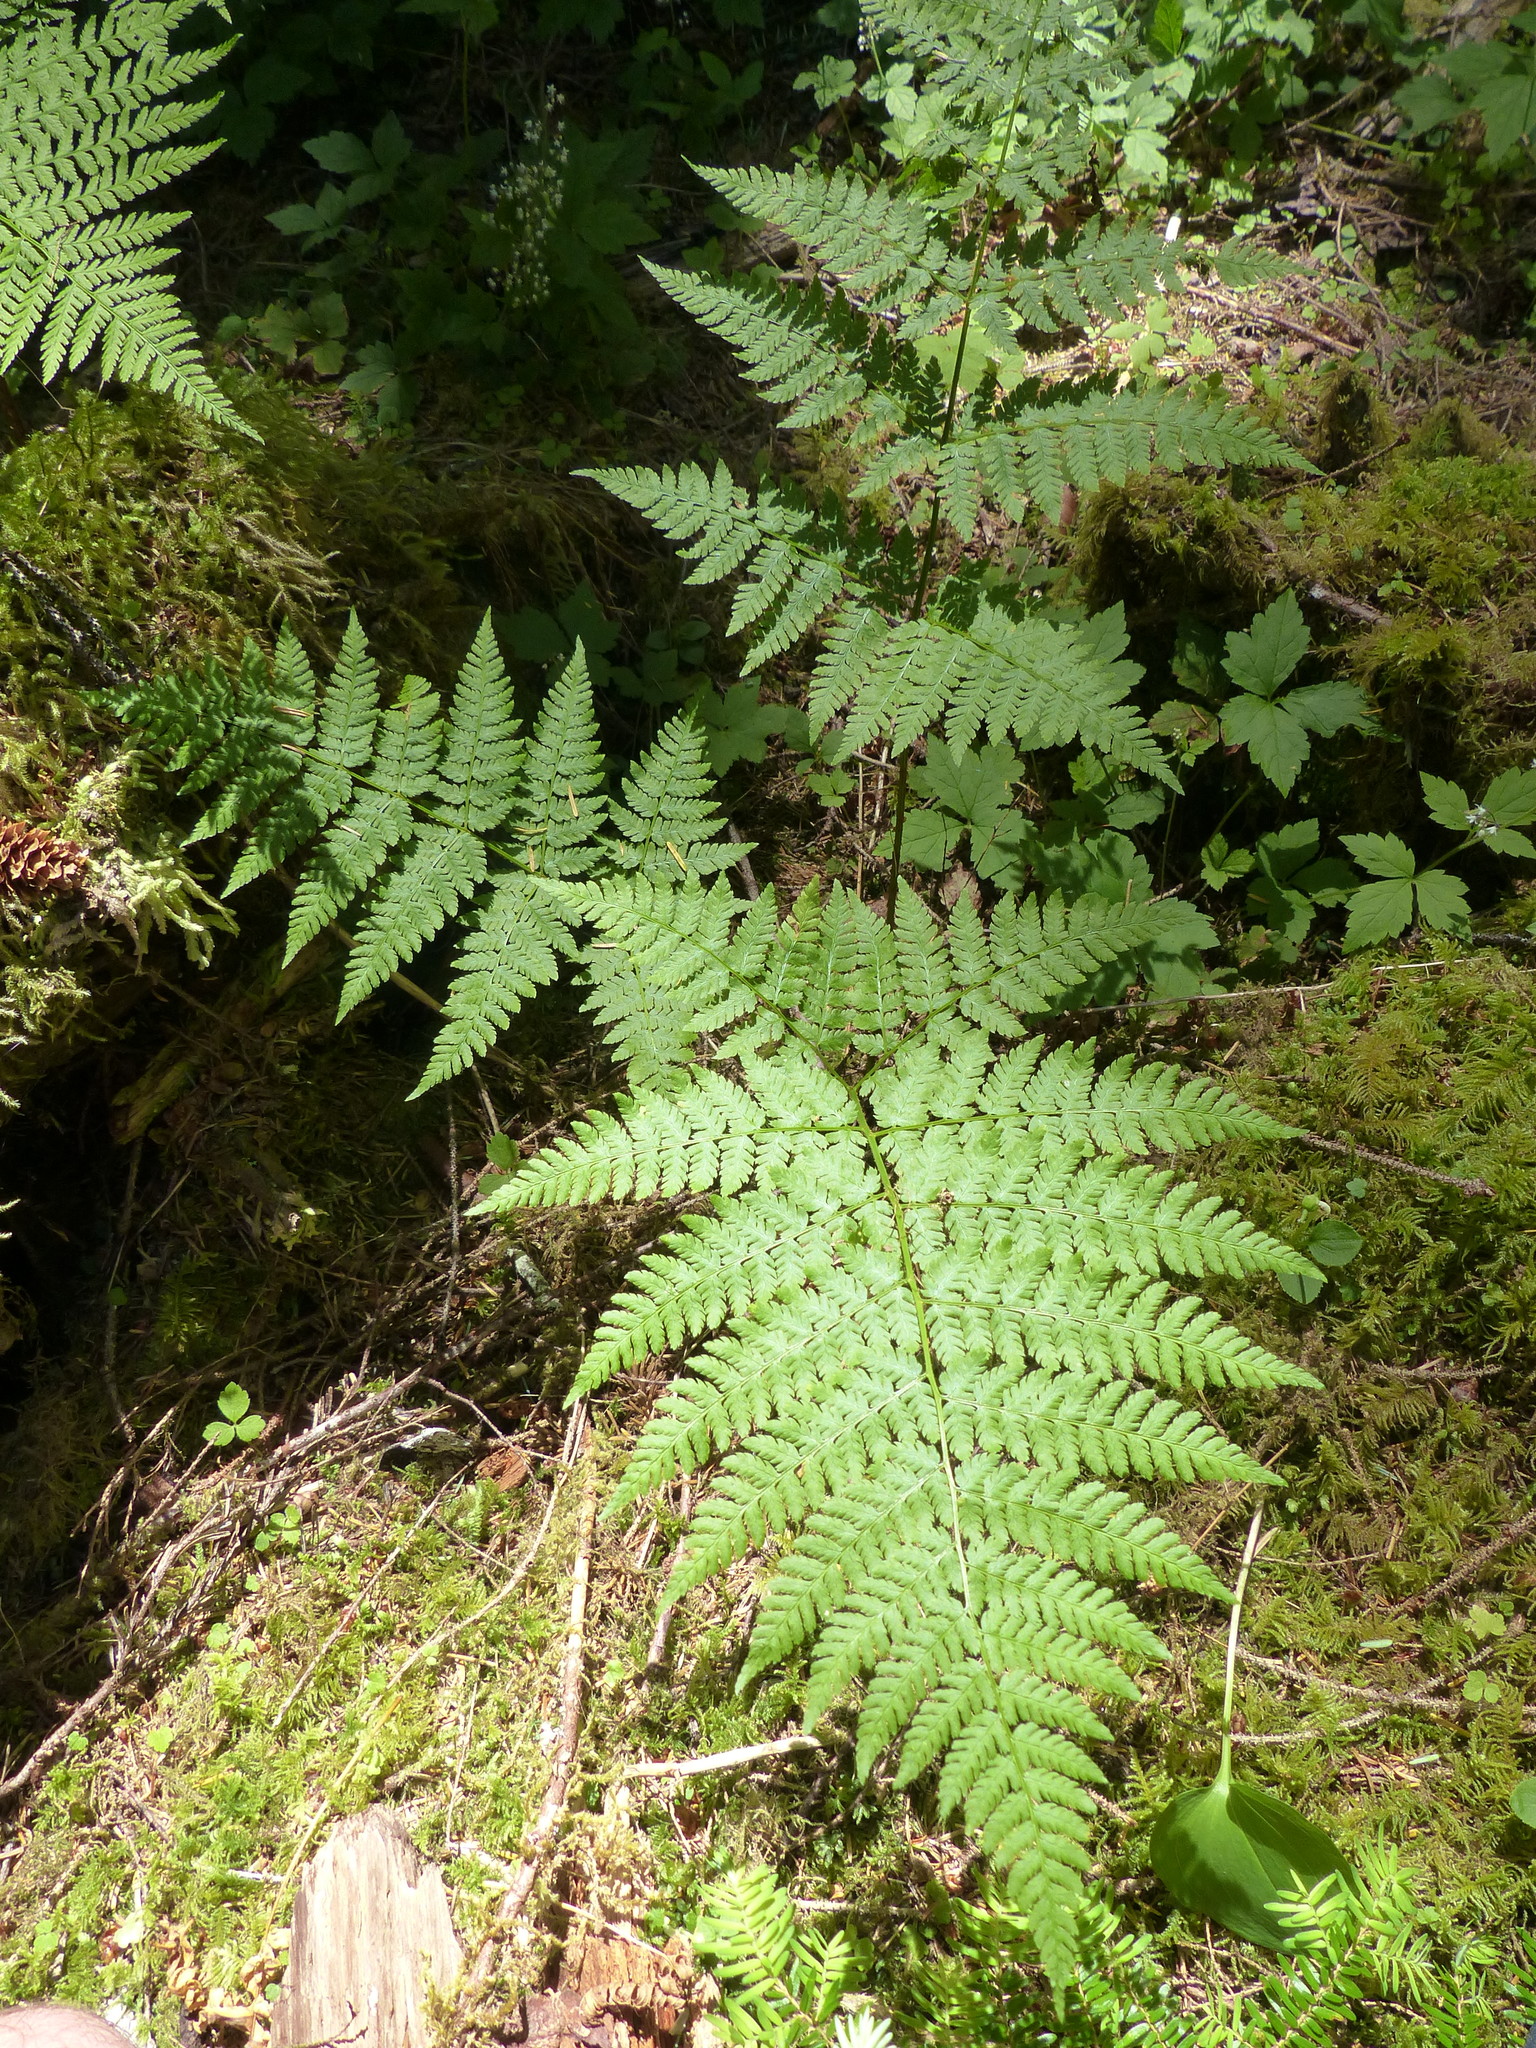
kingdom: Plantae
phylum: Tracheophyta
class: Polypodiopsida
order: Polypodiales
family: Dryopteridaceae
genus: Dryopteris
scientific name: Dryopteris expansa
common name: Northern buckler fern
